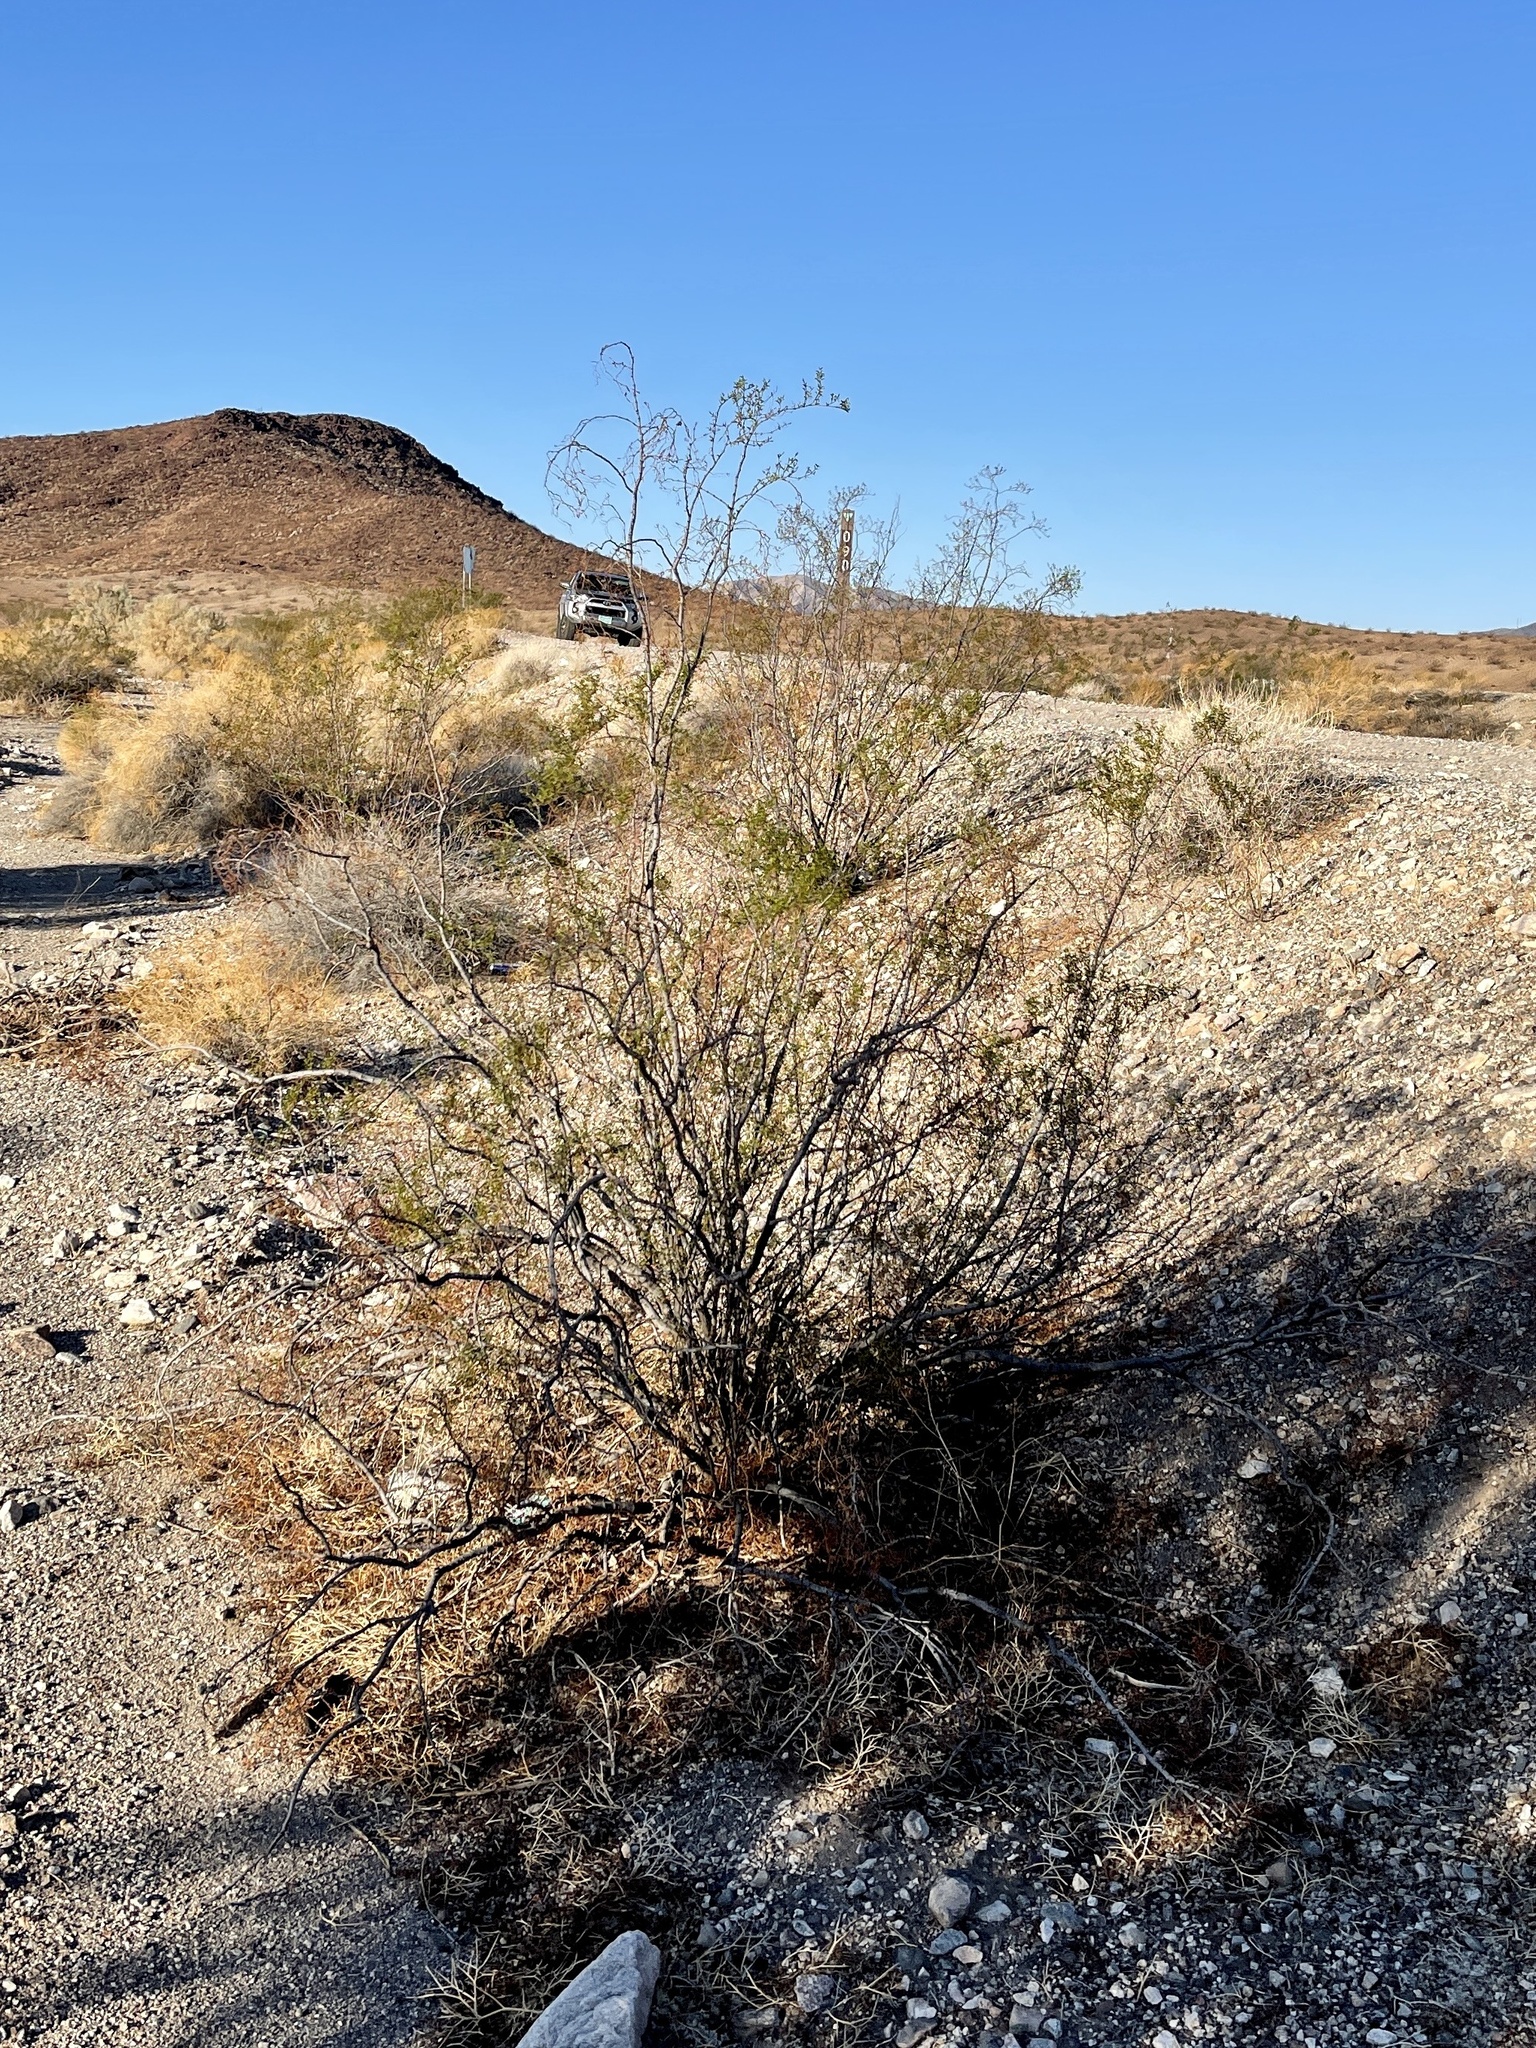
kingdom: Plantae
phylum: Tracheophyta
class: Magnoliopsida
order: Zygophyllales
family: Zygophyllaceae
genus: Larrea
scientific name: Larrea tridentata
